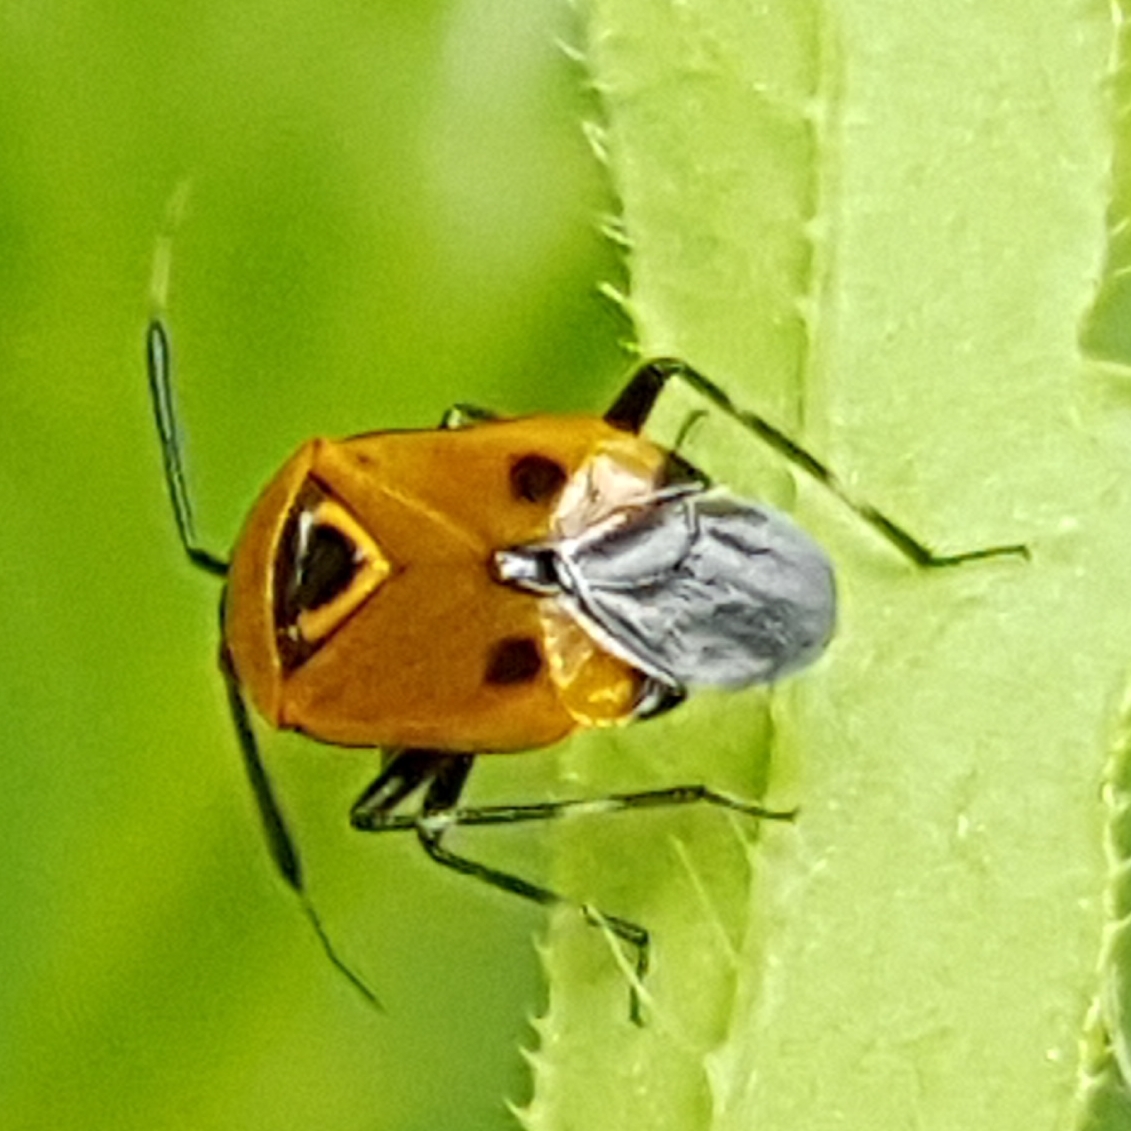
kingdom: Animalia
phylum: Arthropoda
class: Insecta
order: Hemiptera
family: Miridae
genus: Deraeocoris
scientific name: Deraeocoris punctum
